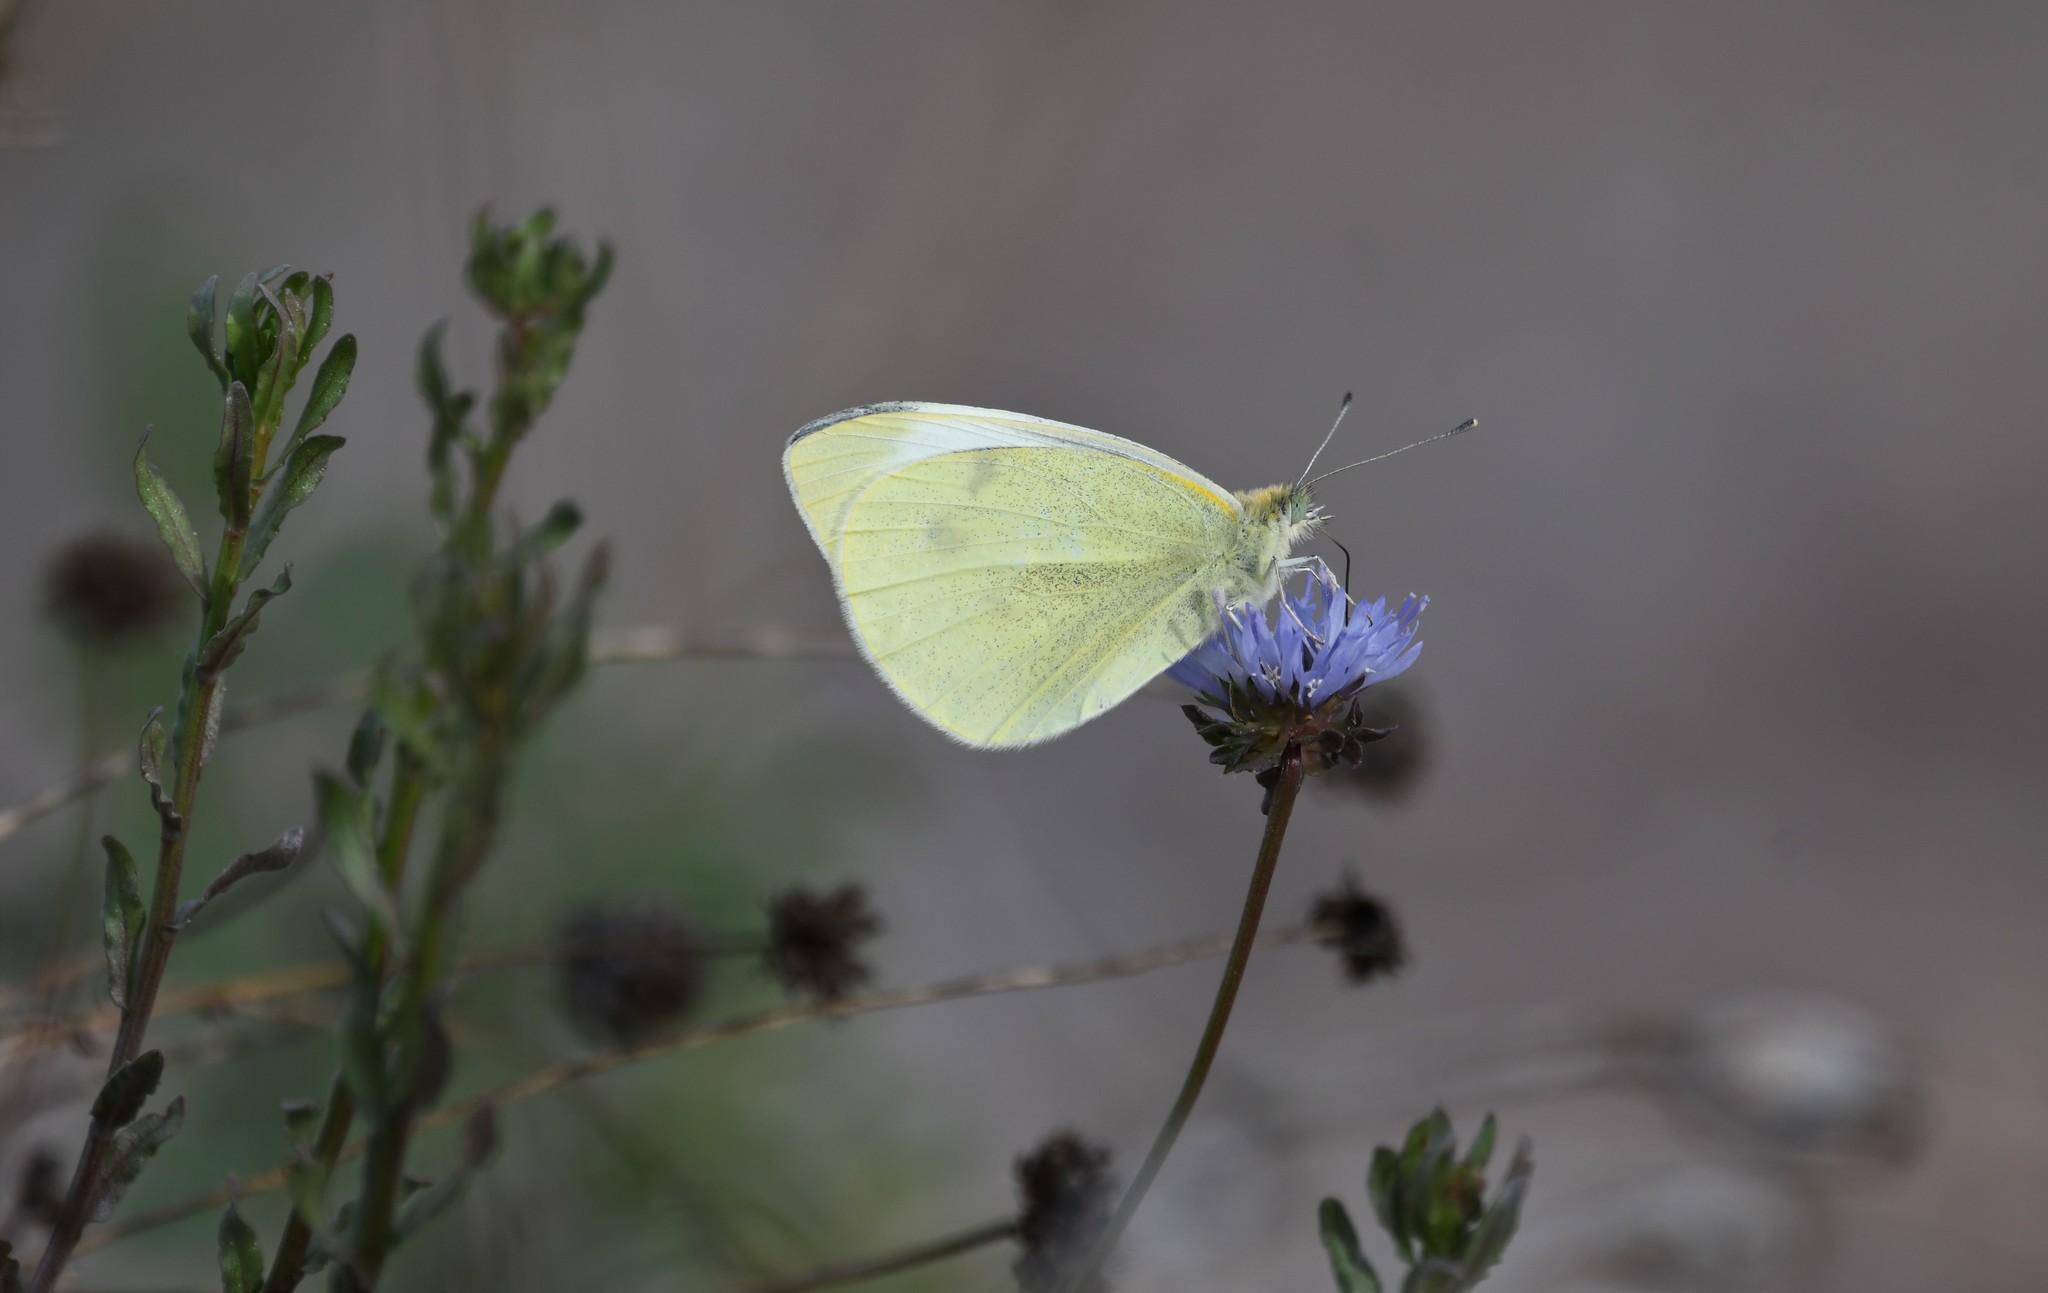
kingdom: Plantae
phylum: Tracheophyta
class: Magnoliopsida
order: Asterales
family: Campanulaceae
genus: Jasione
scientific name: Jasione sessiliflora
